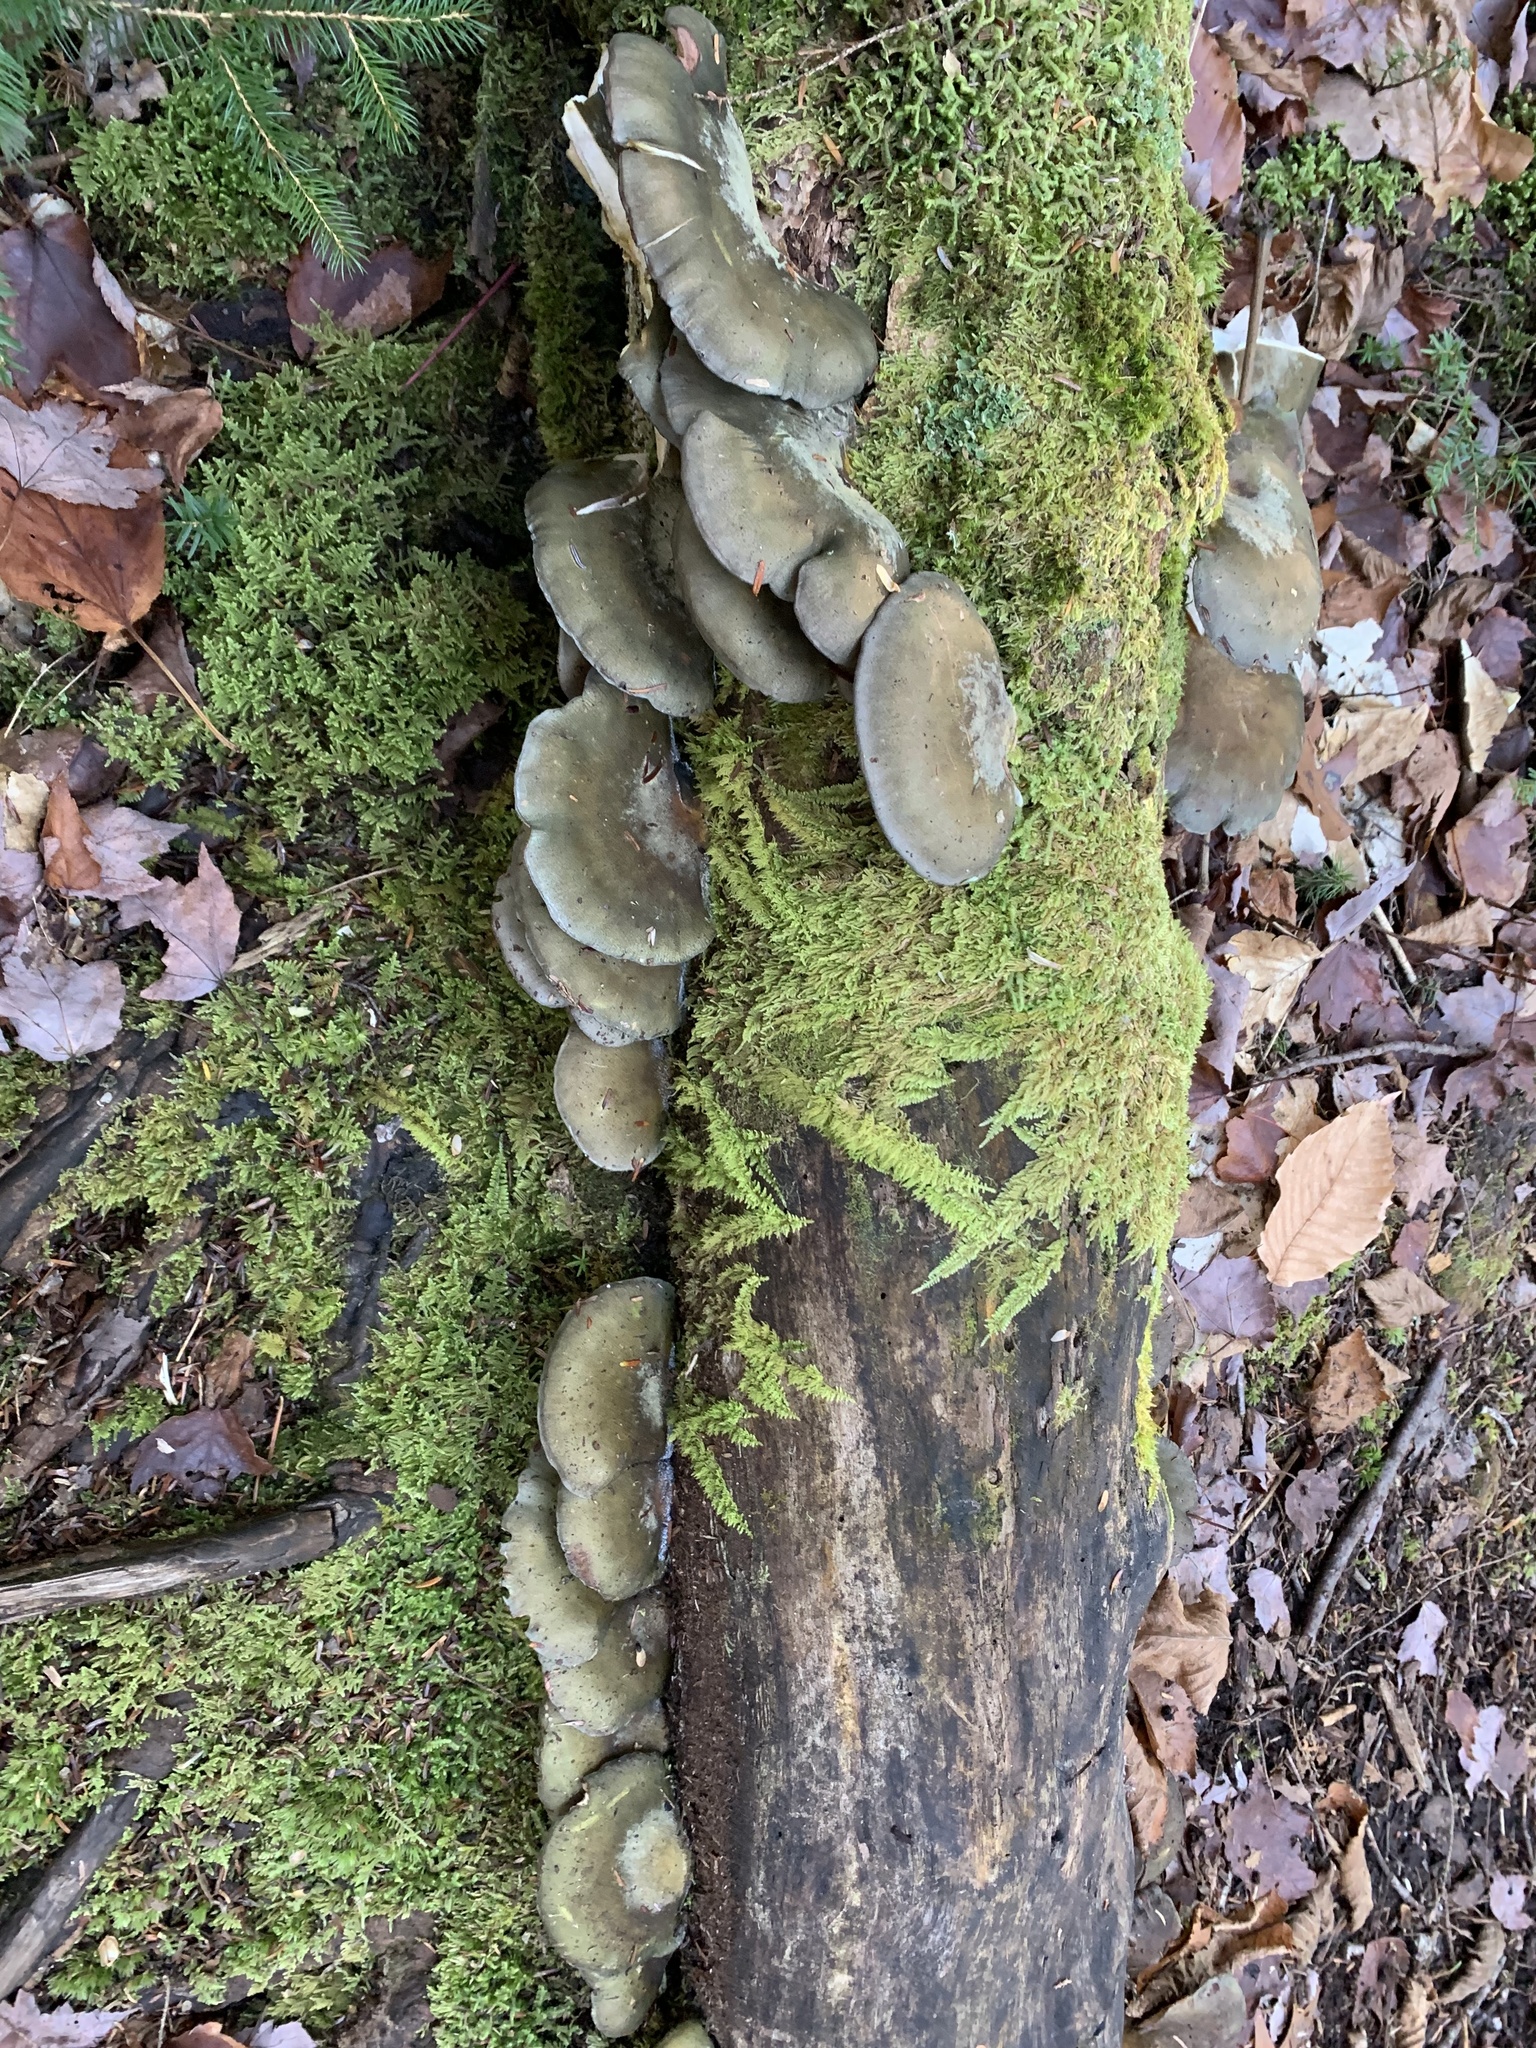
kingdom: Fungi
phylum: Basidiomycota
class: Agaricomycetes
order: Agaricales
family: Sarcomyxaceae
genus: Sarcomyxa
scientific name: Sarcomyxa serotina
